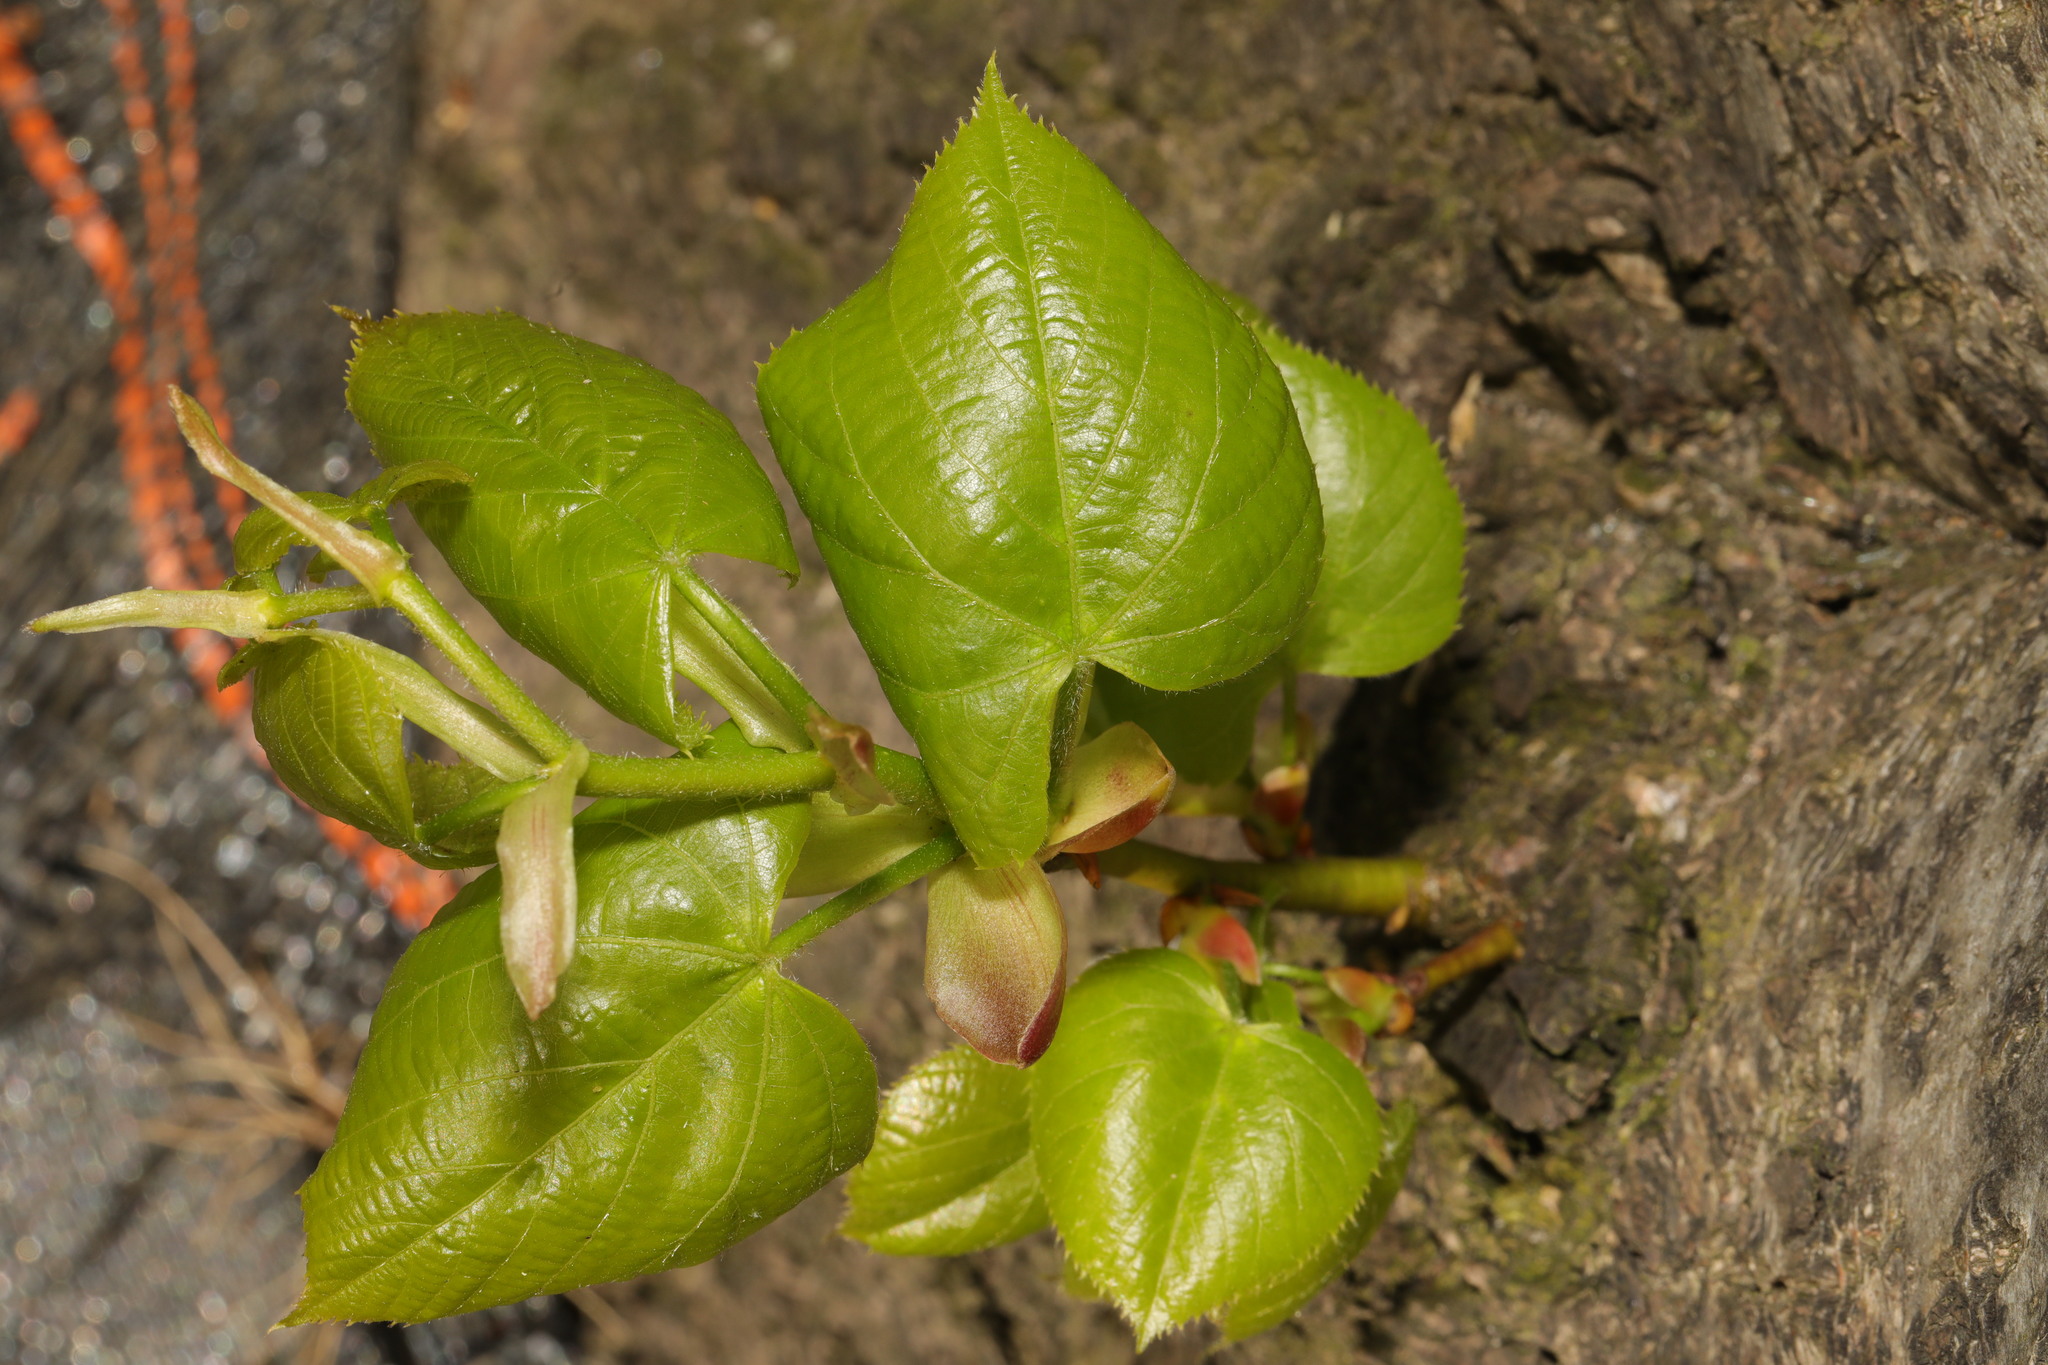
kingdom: Plantae
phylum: Tracheophyta
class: Magnoliopsida
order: Malvales
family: Malvaceae
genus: Tilia
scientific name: Tilia europaea
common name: European linden
